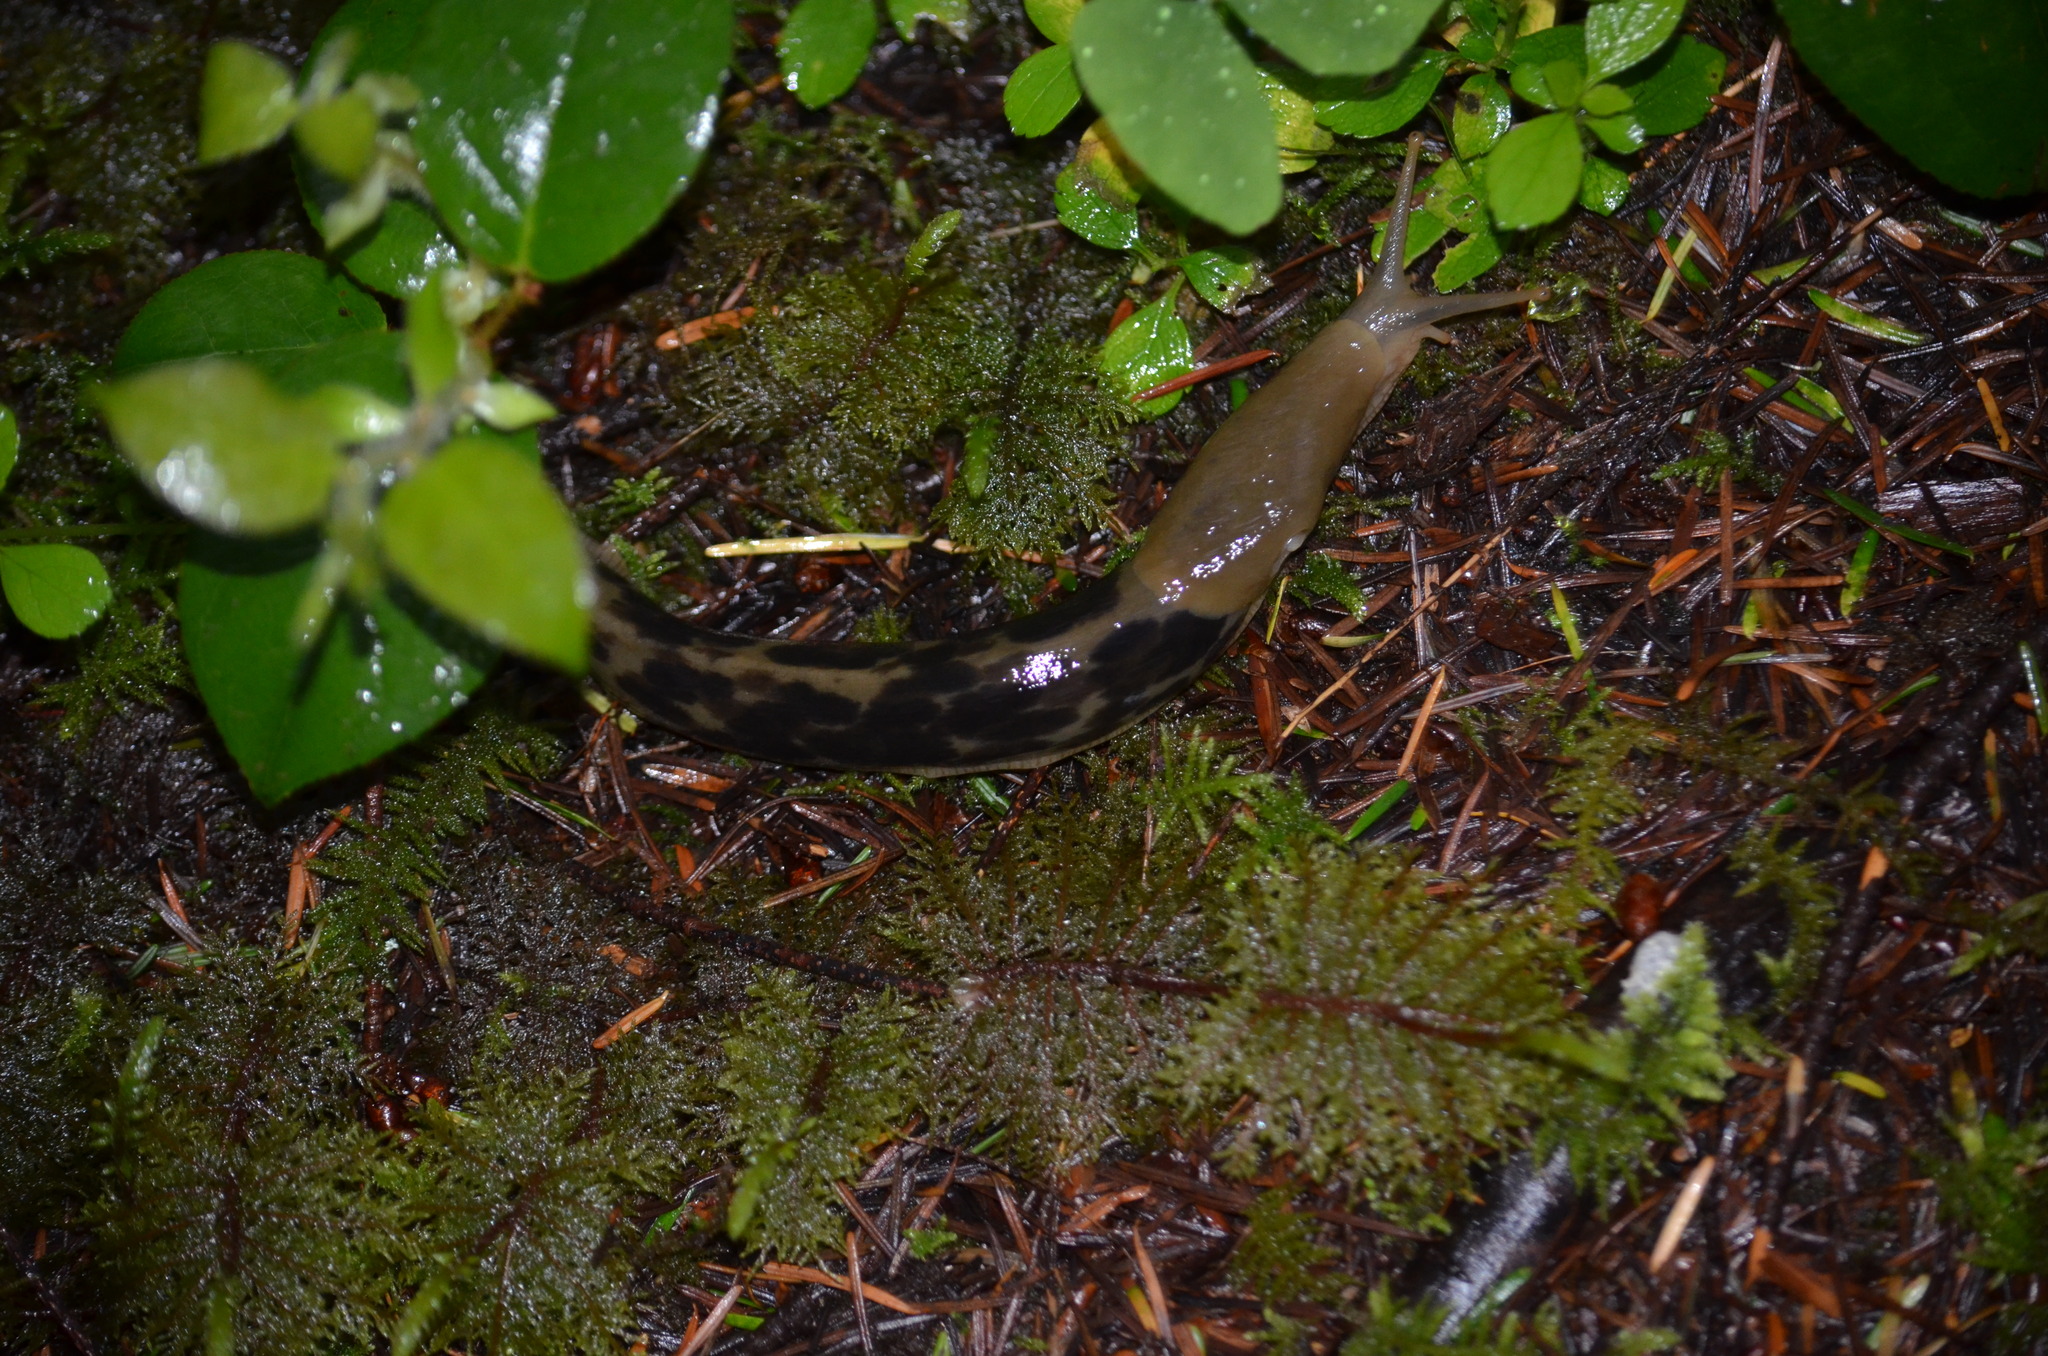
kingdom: Animalia
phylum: Mollusca
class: Gastropoda
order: Stylommatophora
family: Ariolimacidae
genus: Ariolimax
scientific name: Ariolimax columbianus
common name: Pacific banana slug
